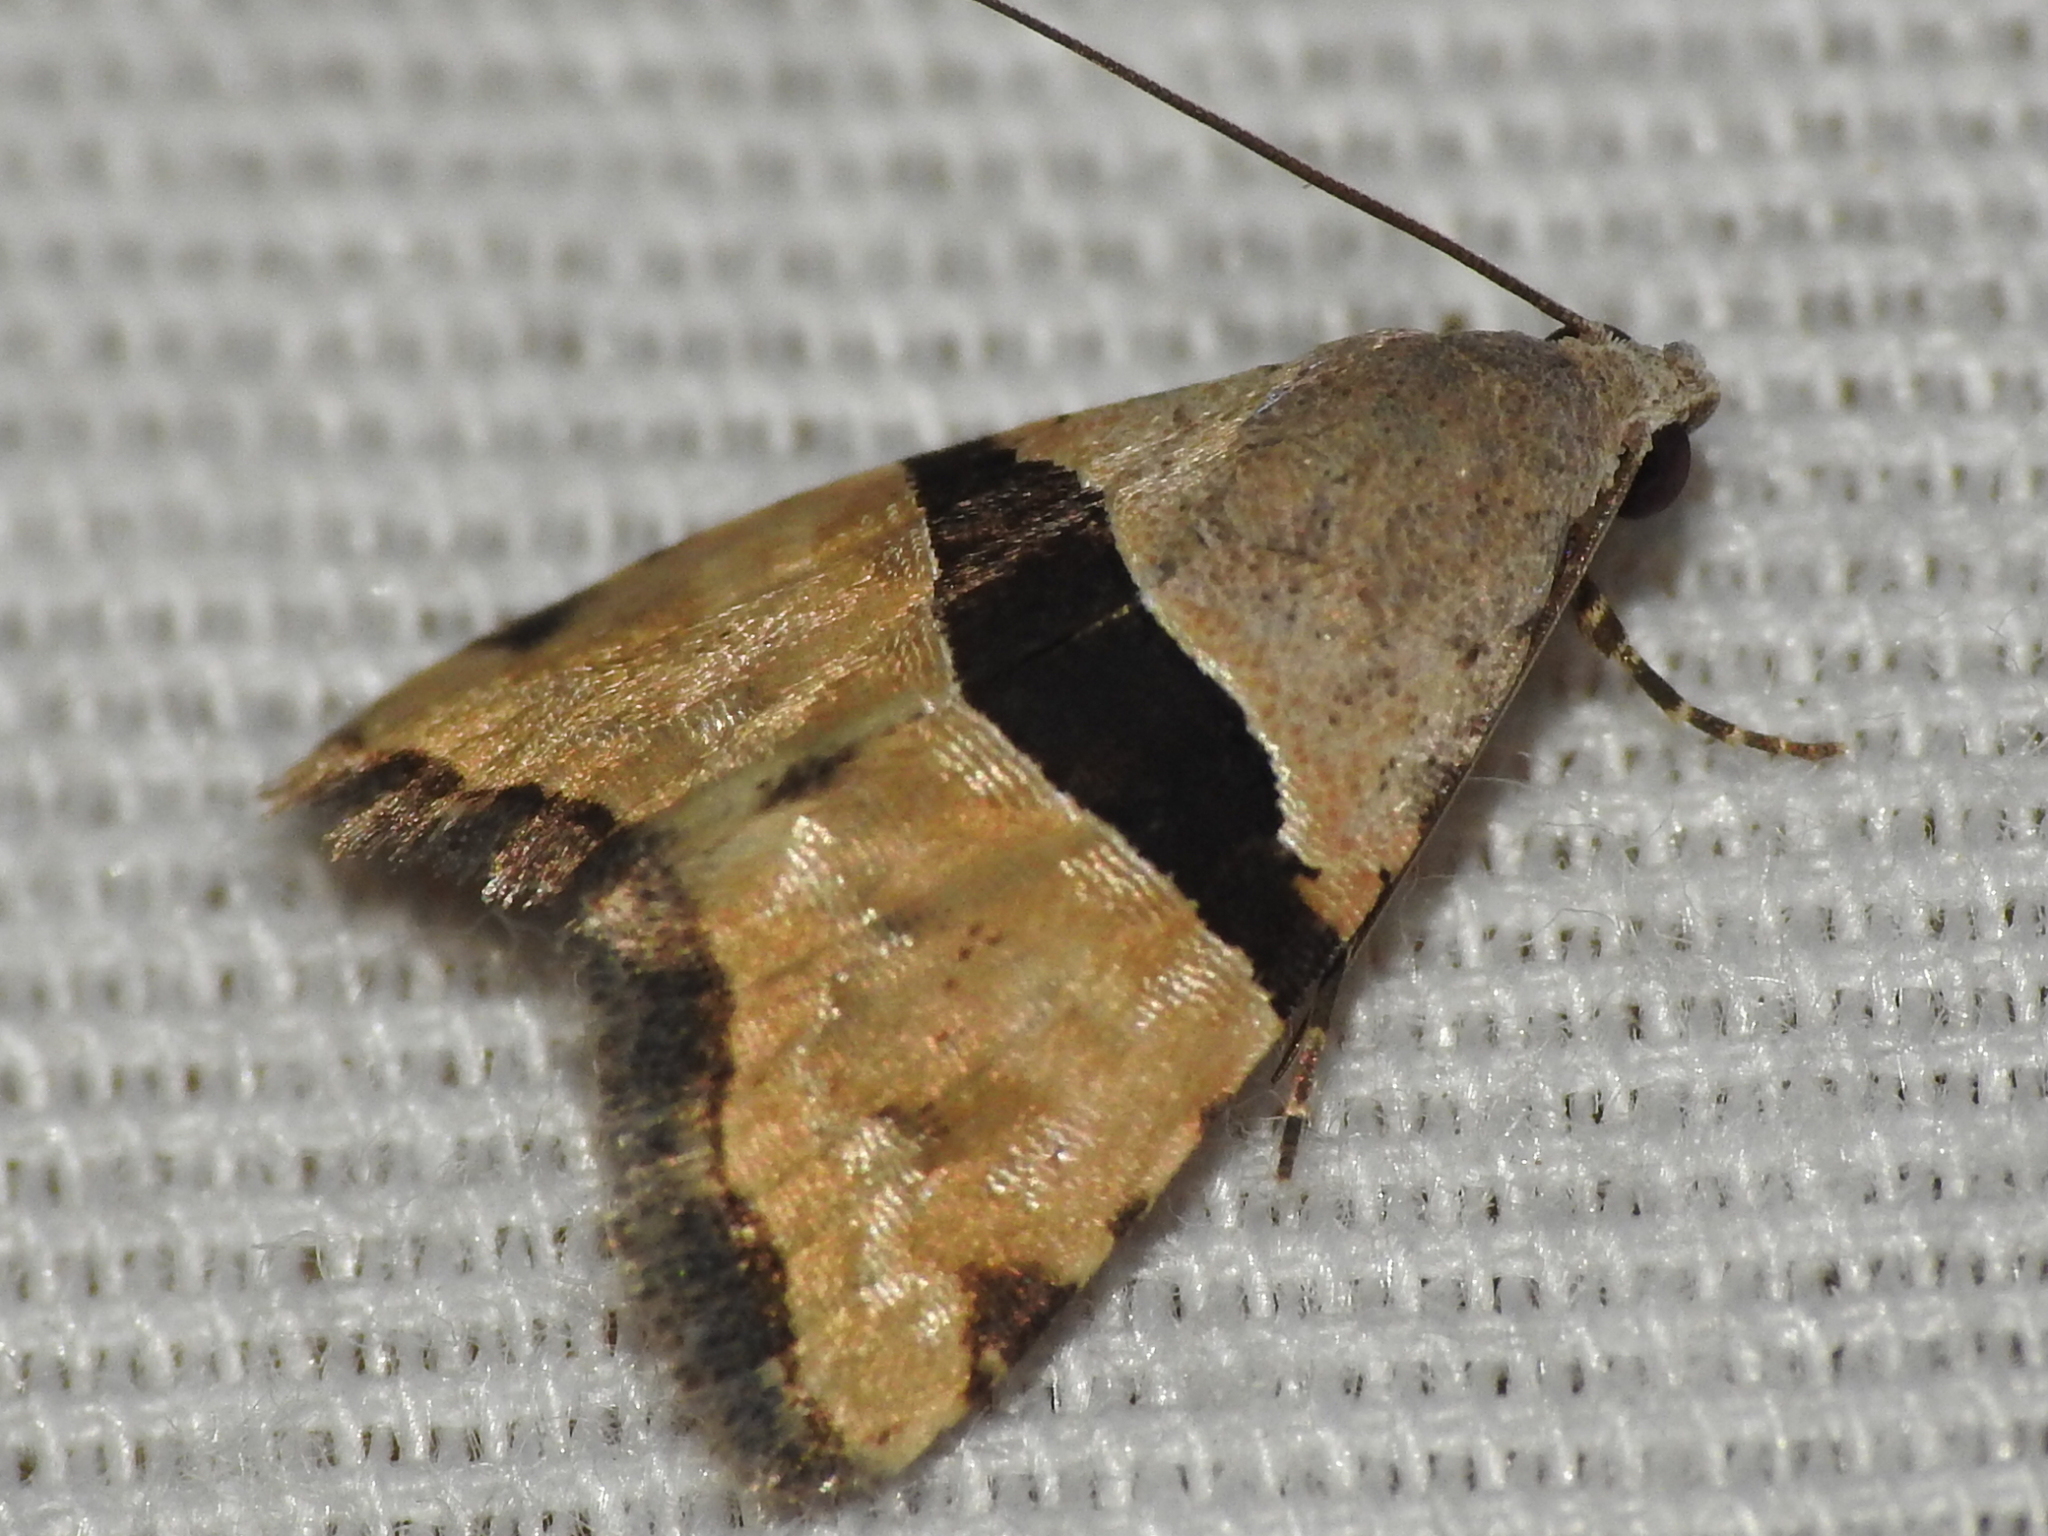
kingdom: Animalia
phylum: Arthropoda
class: Insecta
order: Lepidoptera
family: Noctuidae
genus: Cobubatha
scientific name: Cobubatha lixiva
